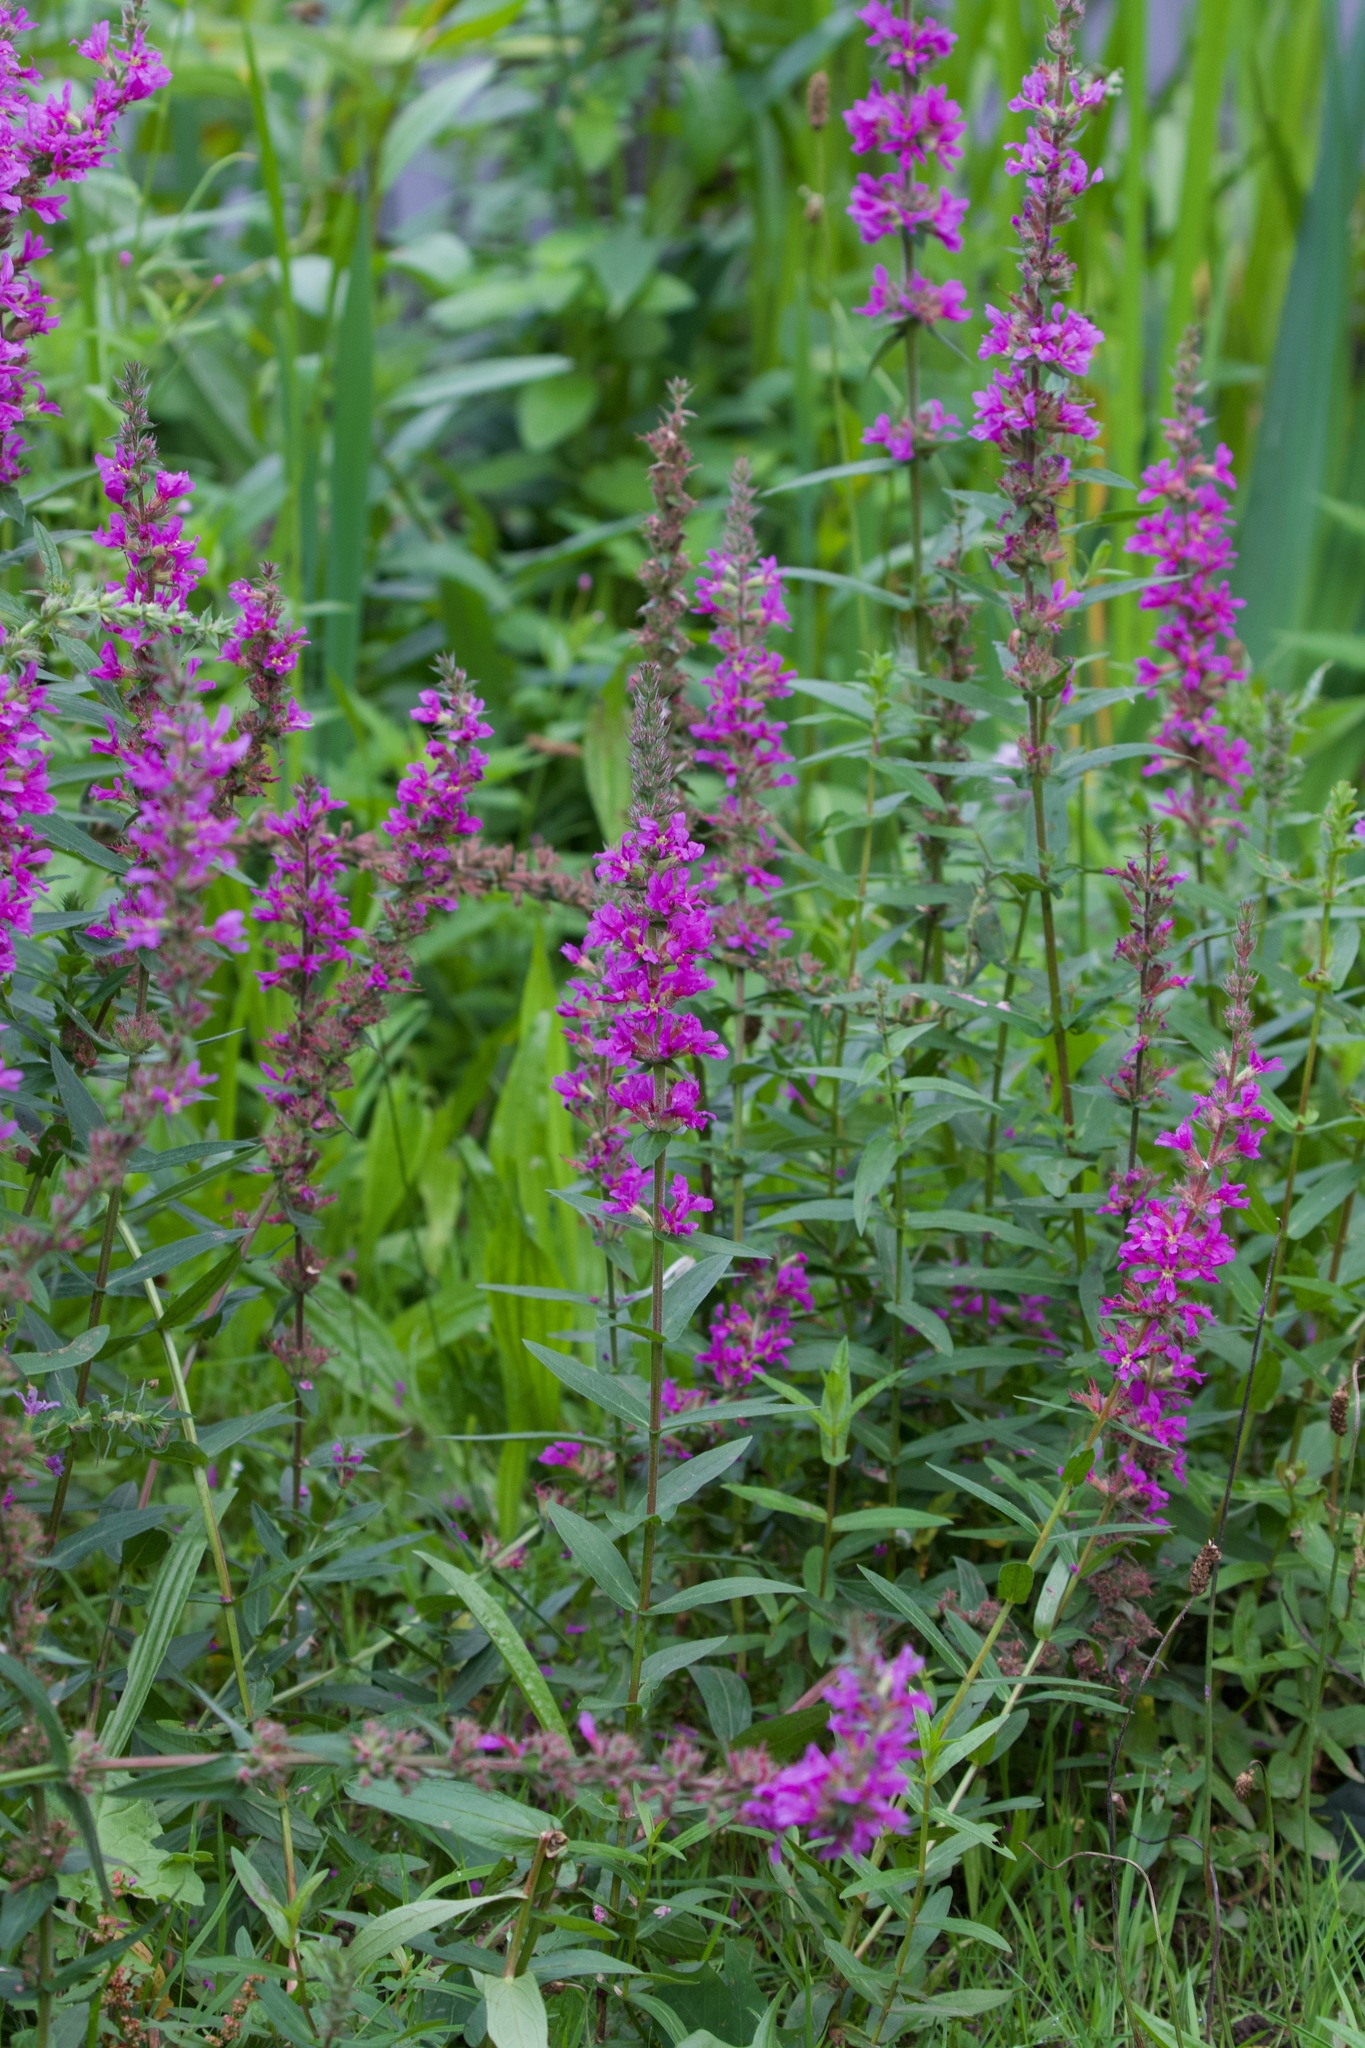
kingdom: Plantae
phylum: Tracheophyta
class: Magnoliopsida
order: Myrtales
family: Lythraceae
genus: Lythrum
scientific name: Lythrum salicaria
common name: Purple loosestrife
